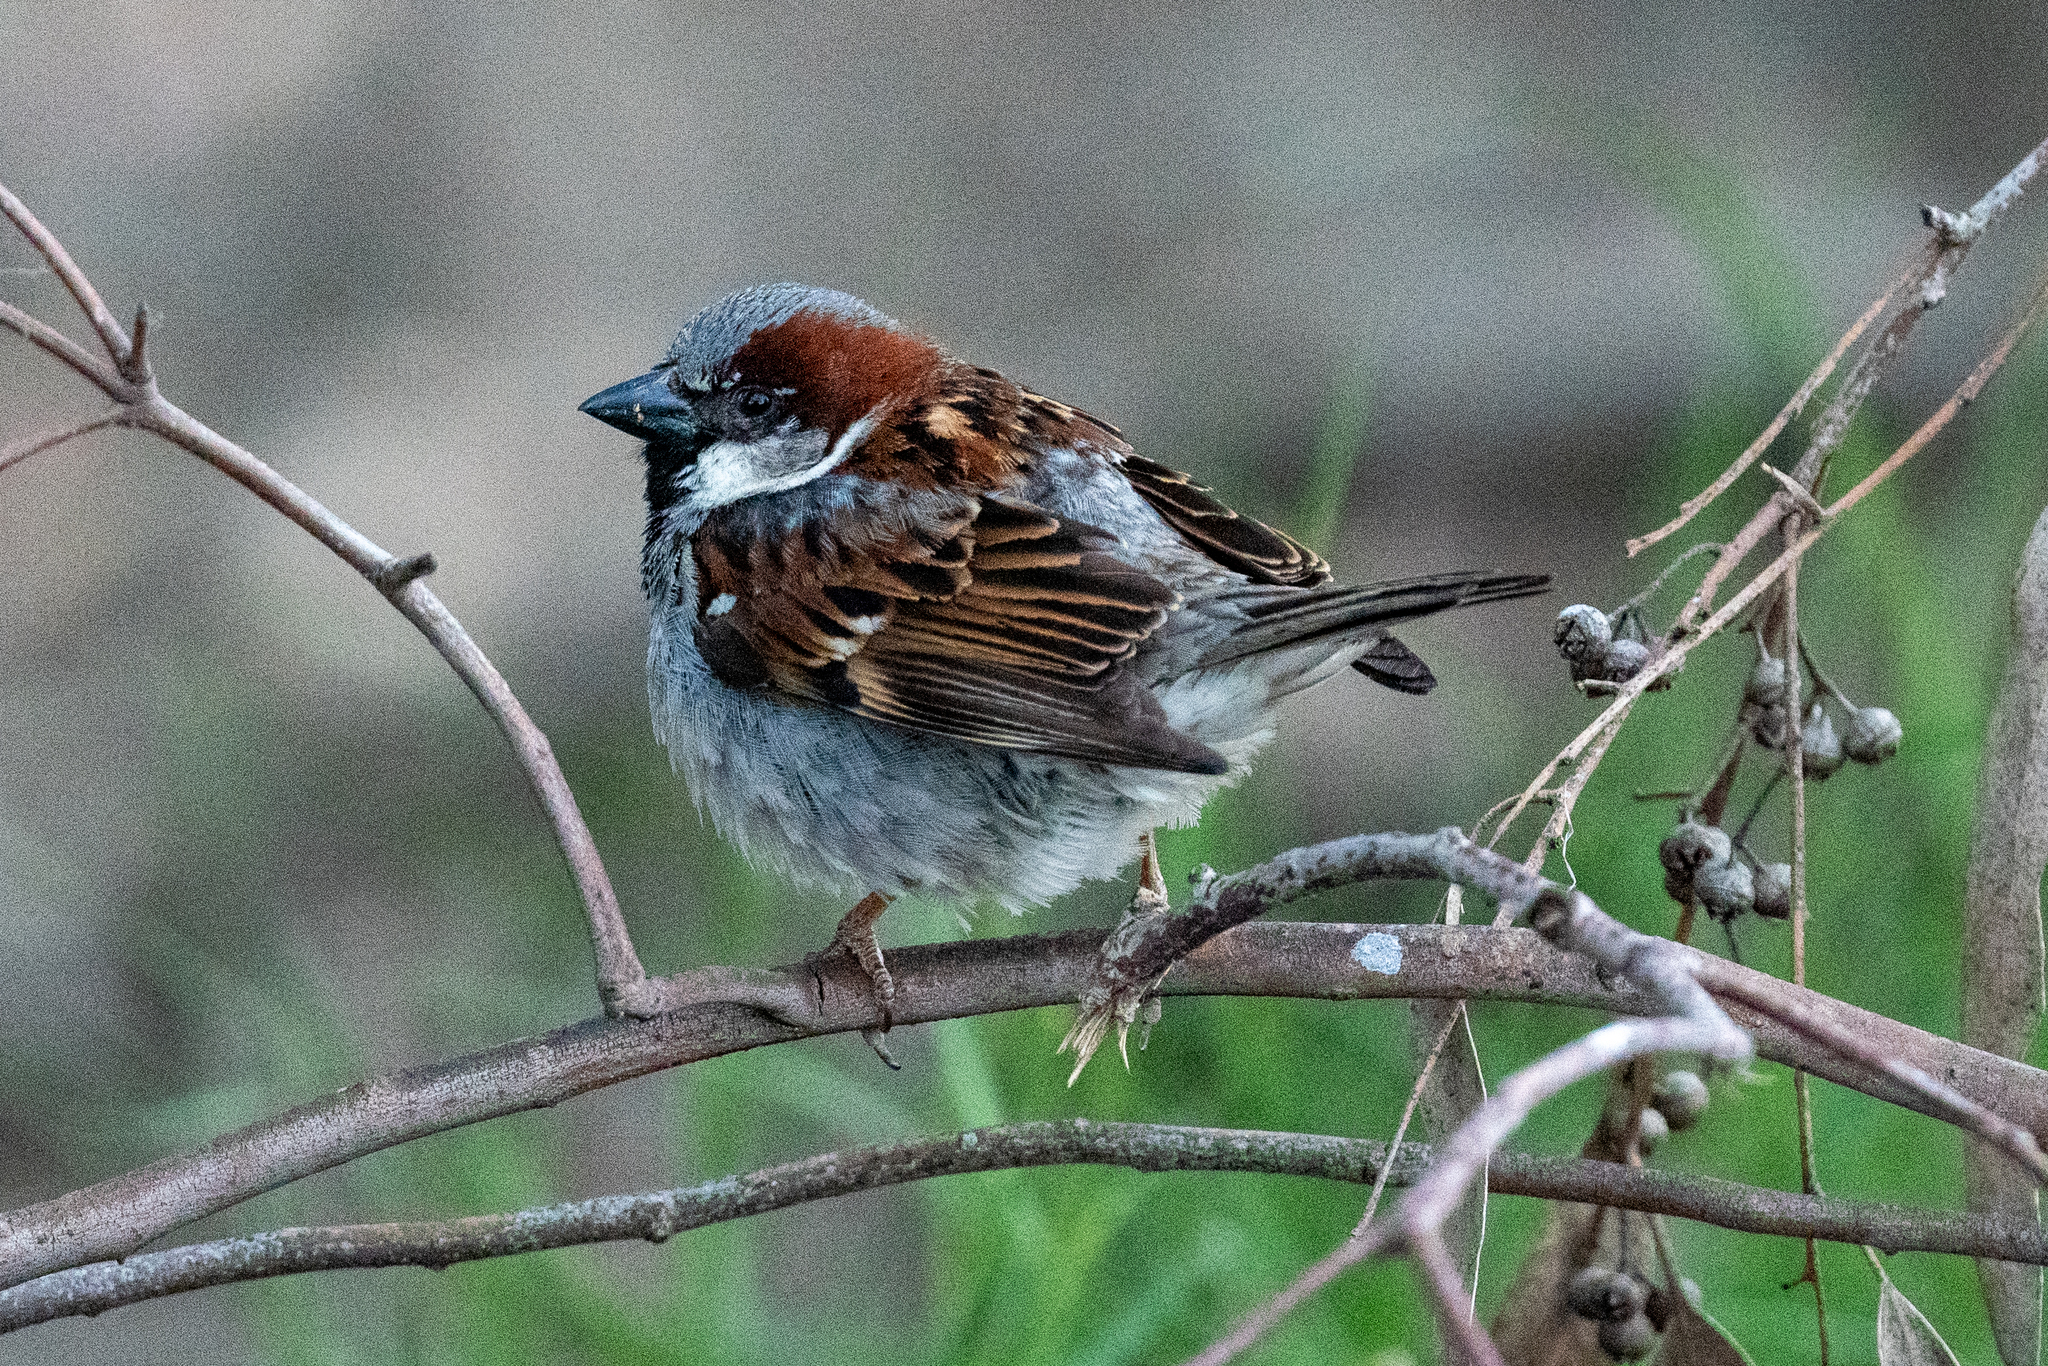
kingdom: Animalia
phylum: Chordata
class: Aves
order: Passeriformes
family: Passeridae
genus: Passer
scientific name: Passer domesticus
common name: House sparrow
